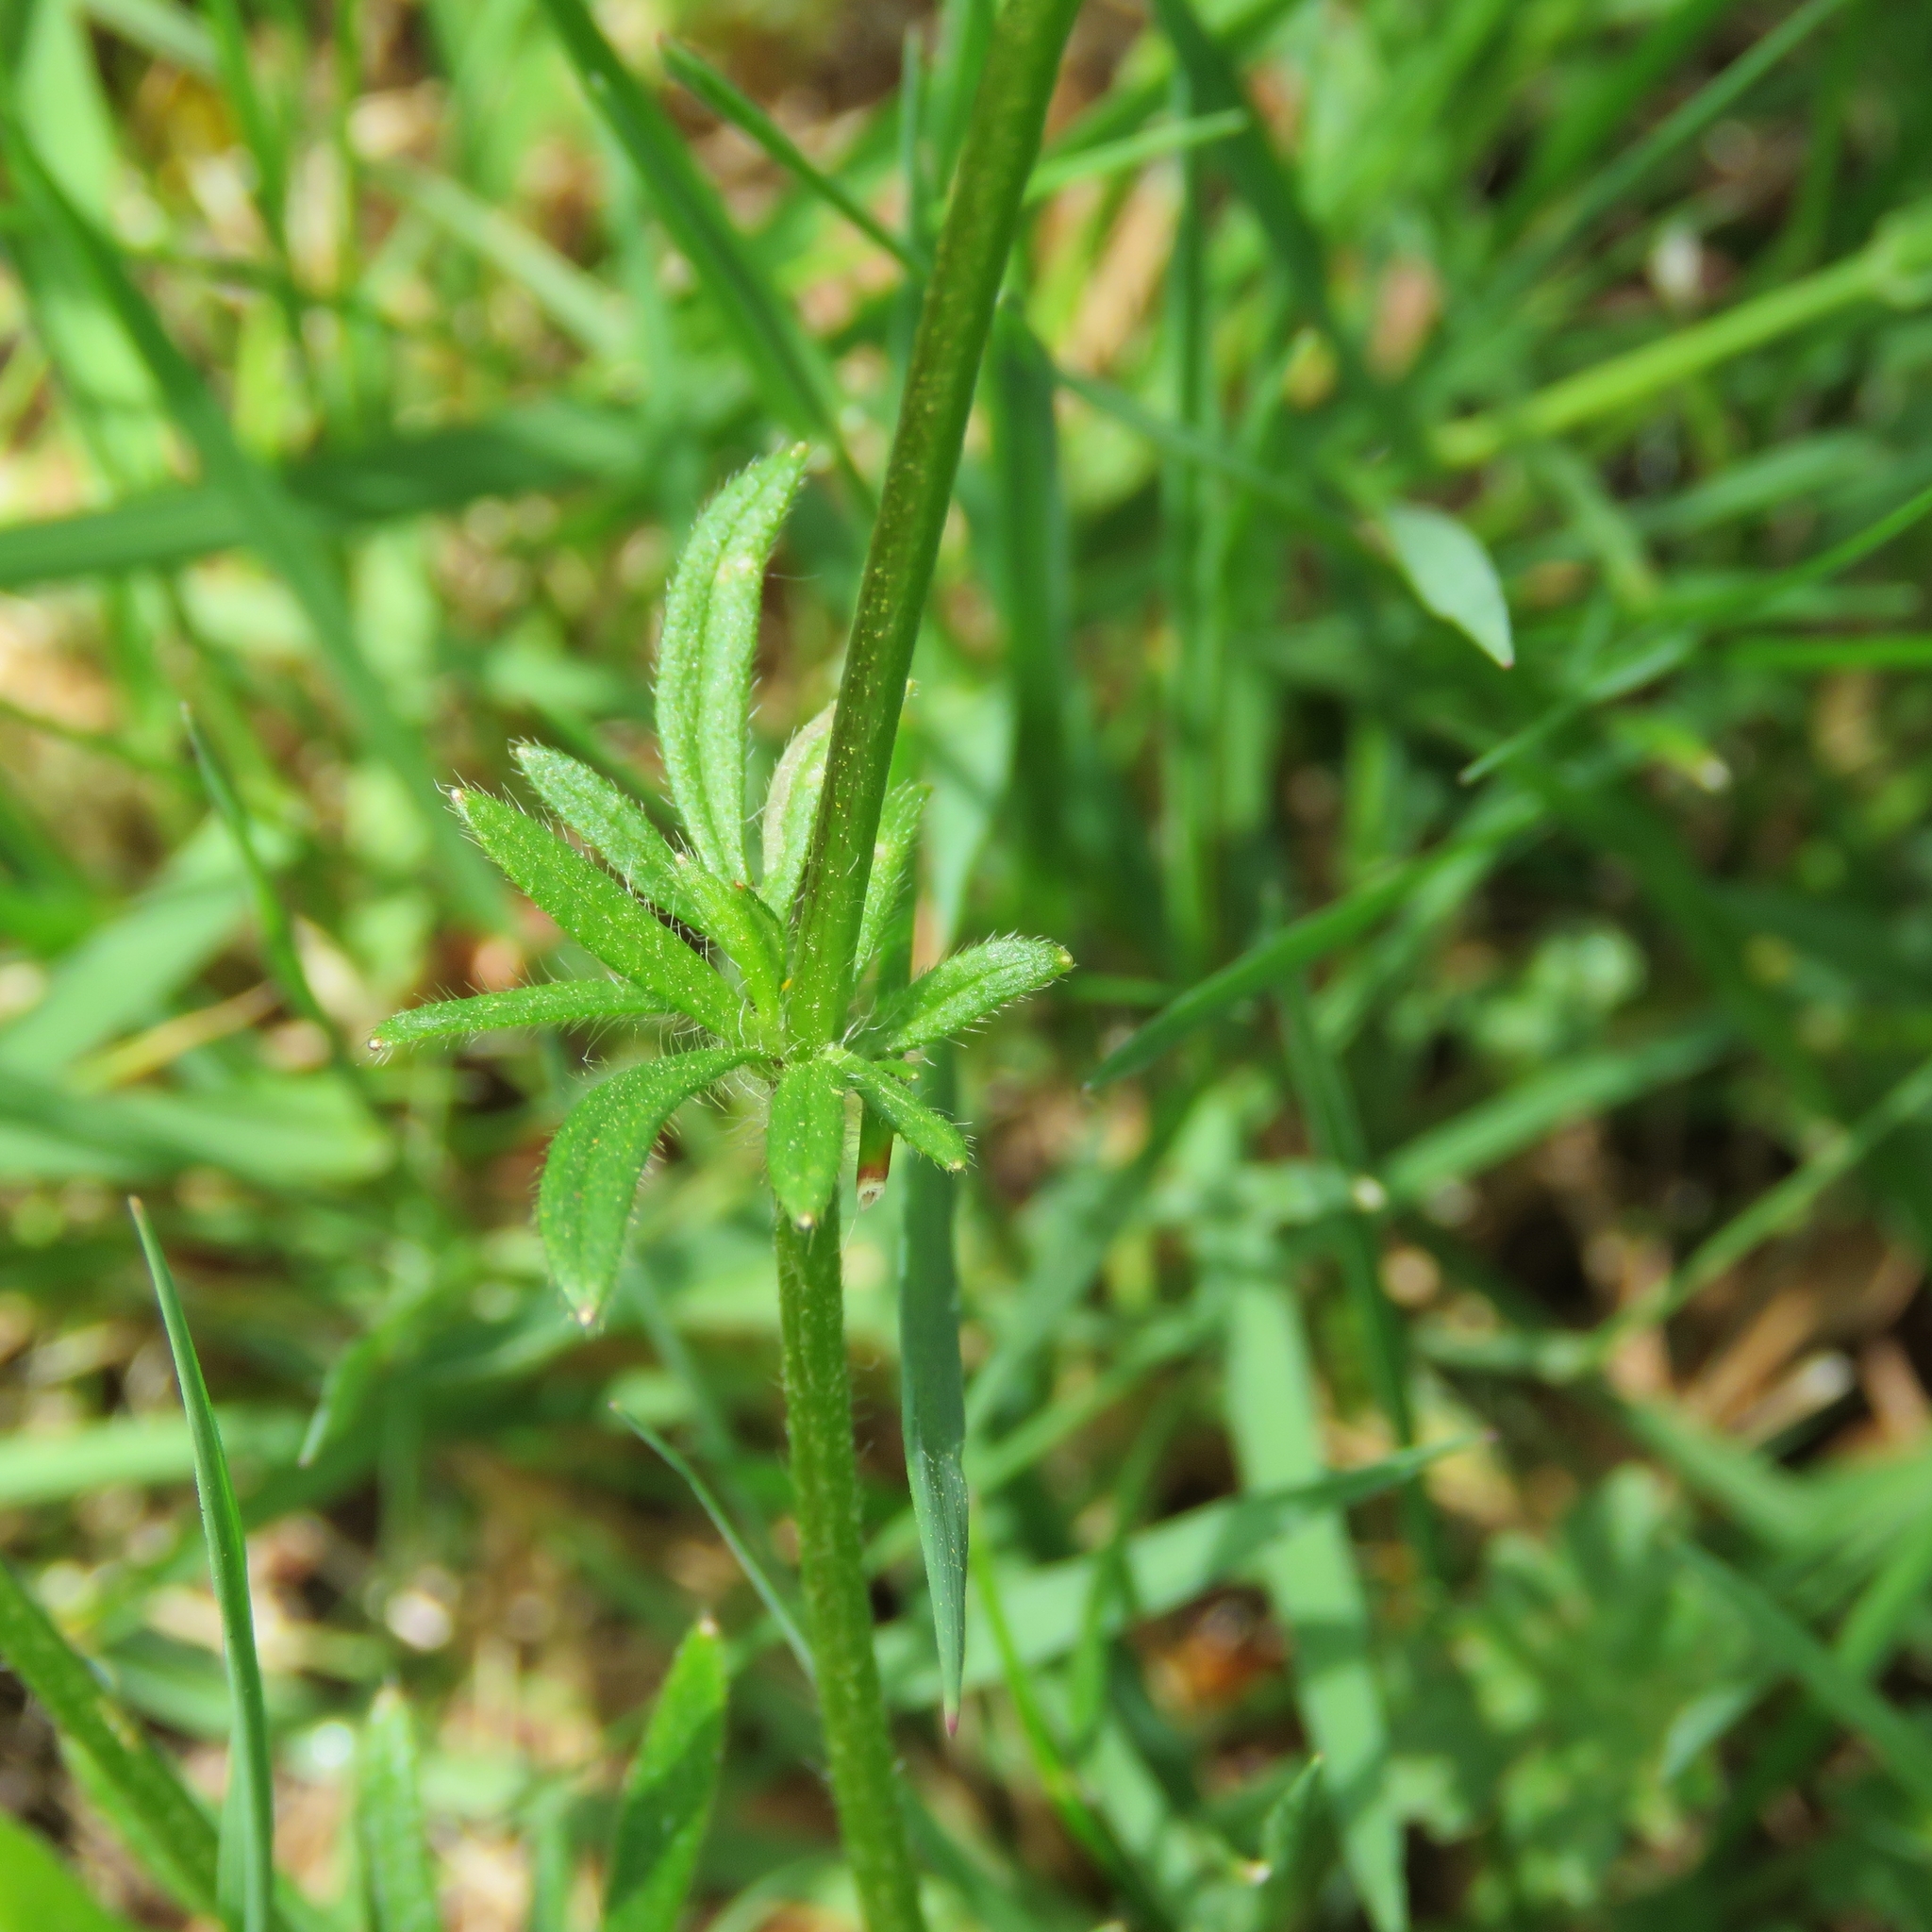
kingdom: Plantae
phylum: Tracheophyta
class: Magnoliopsida
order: Ranunculales
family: Ranunculaceae
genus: Ranunculus
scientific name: Ranunculus acris
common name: Meadow buttercup
